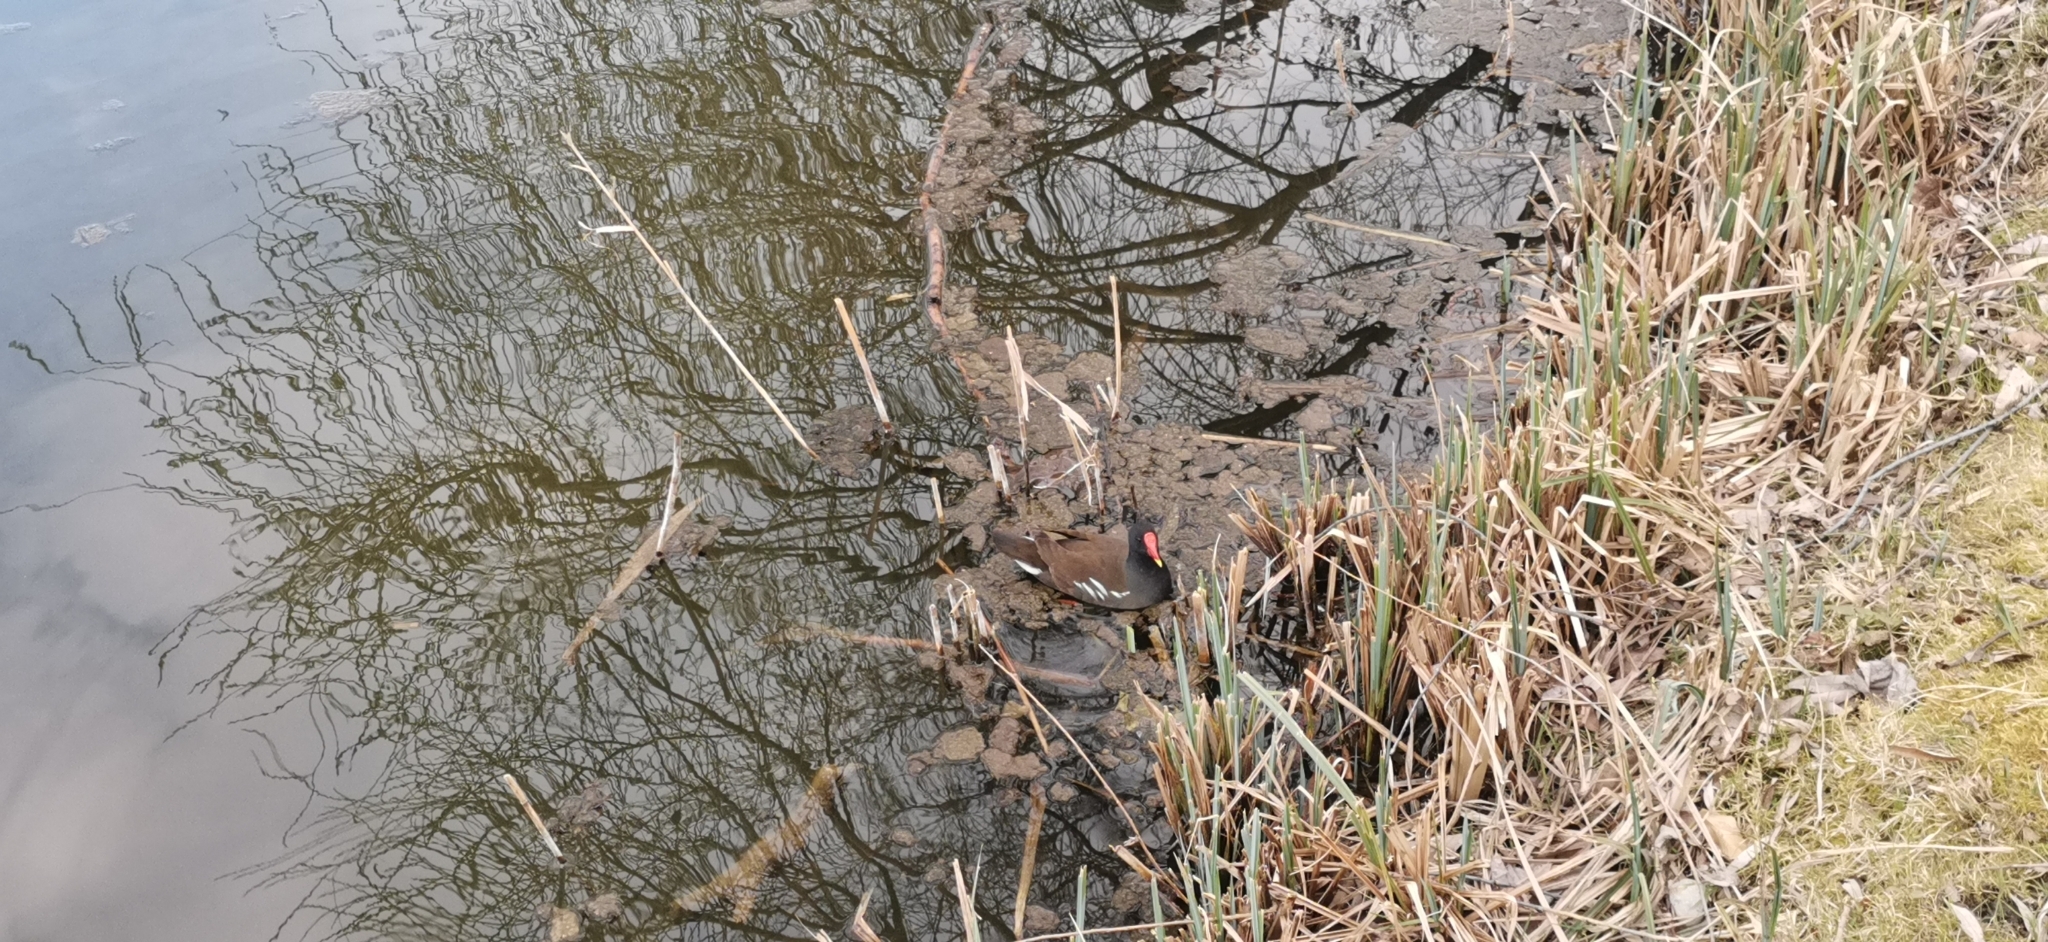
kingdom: Animalia
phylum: Chordata
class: Aves
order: Gruiformes
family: Rallidae
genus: Gallinula
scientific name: Gallinula chloropus
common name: Common moorhen
